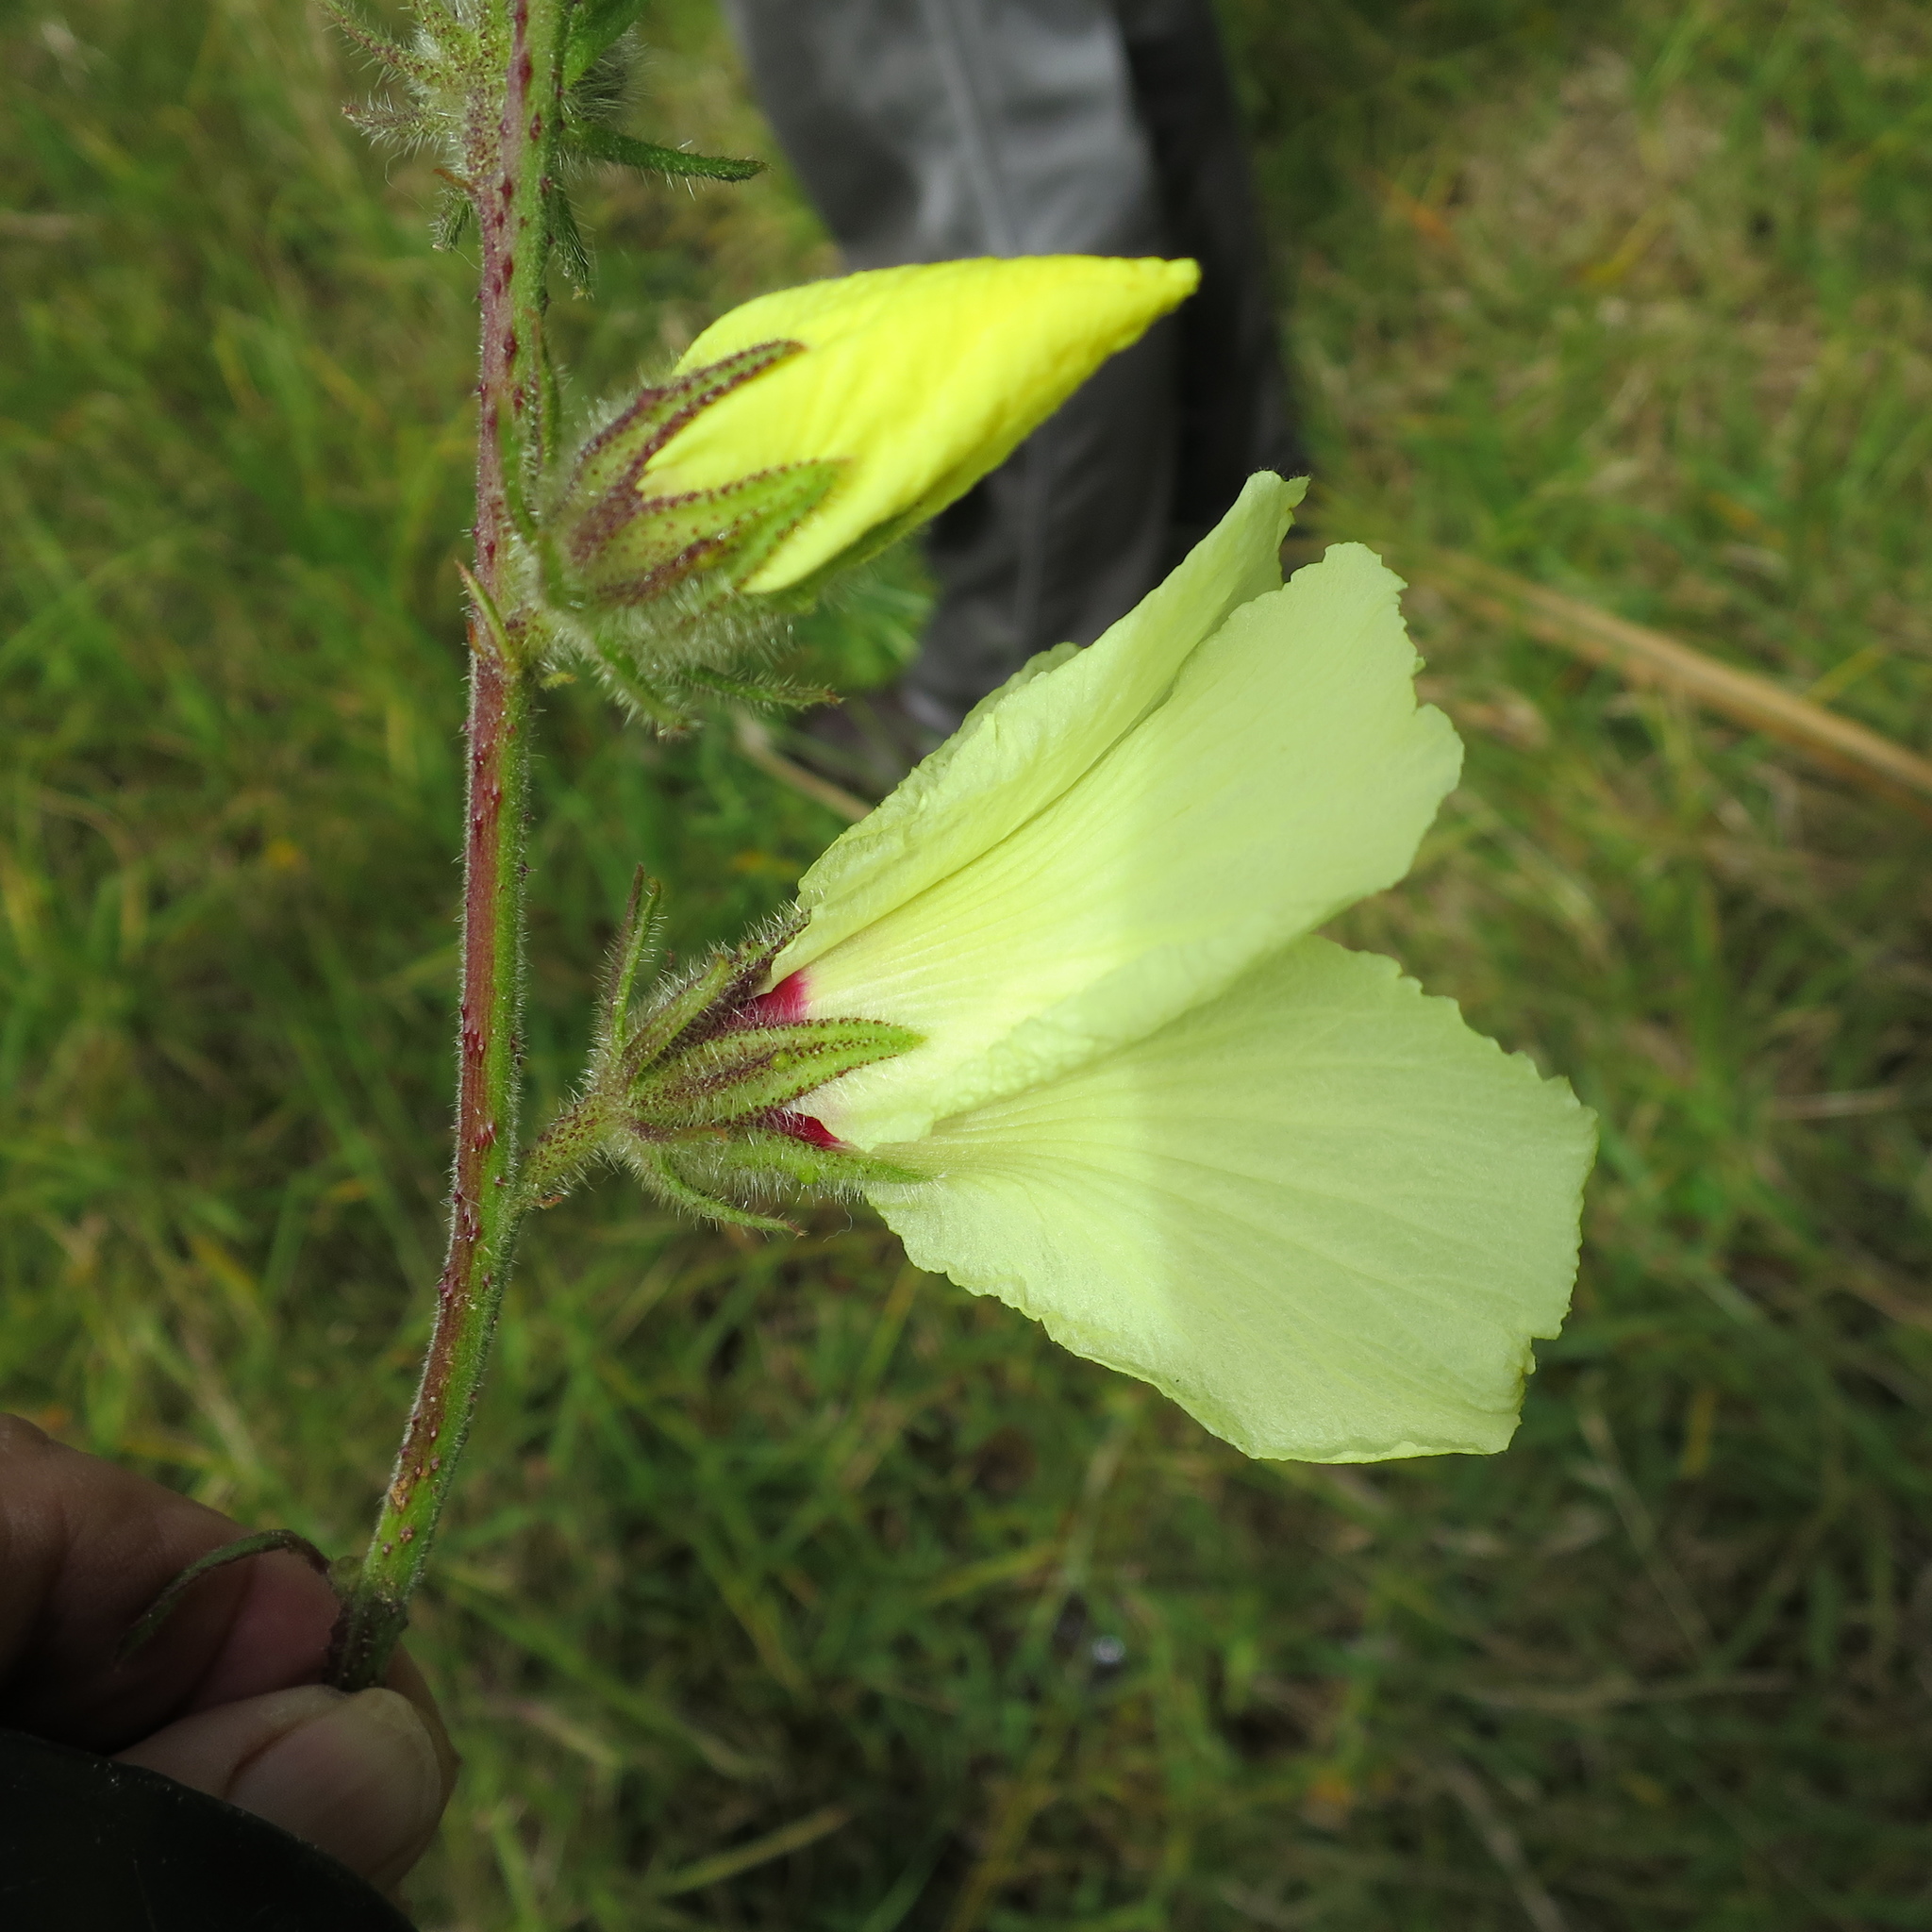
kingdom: Plantae
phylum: Tracheophyta
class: Magnoliopsida
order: Malvales
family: Malvaceae
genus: Hibiscus
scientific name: Hibiscus diversifolius
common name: Cape hibiscus
